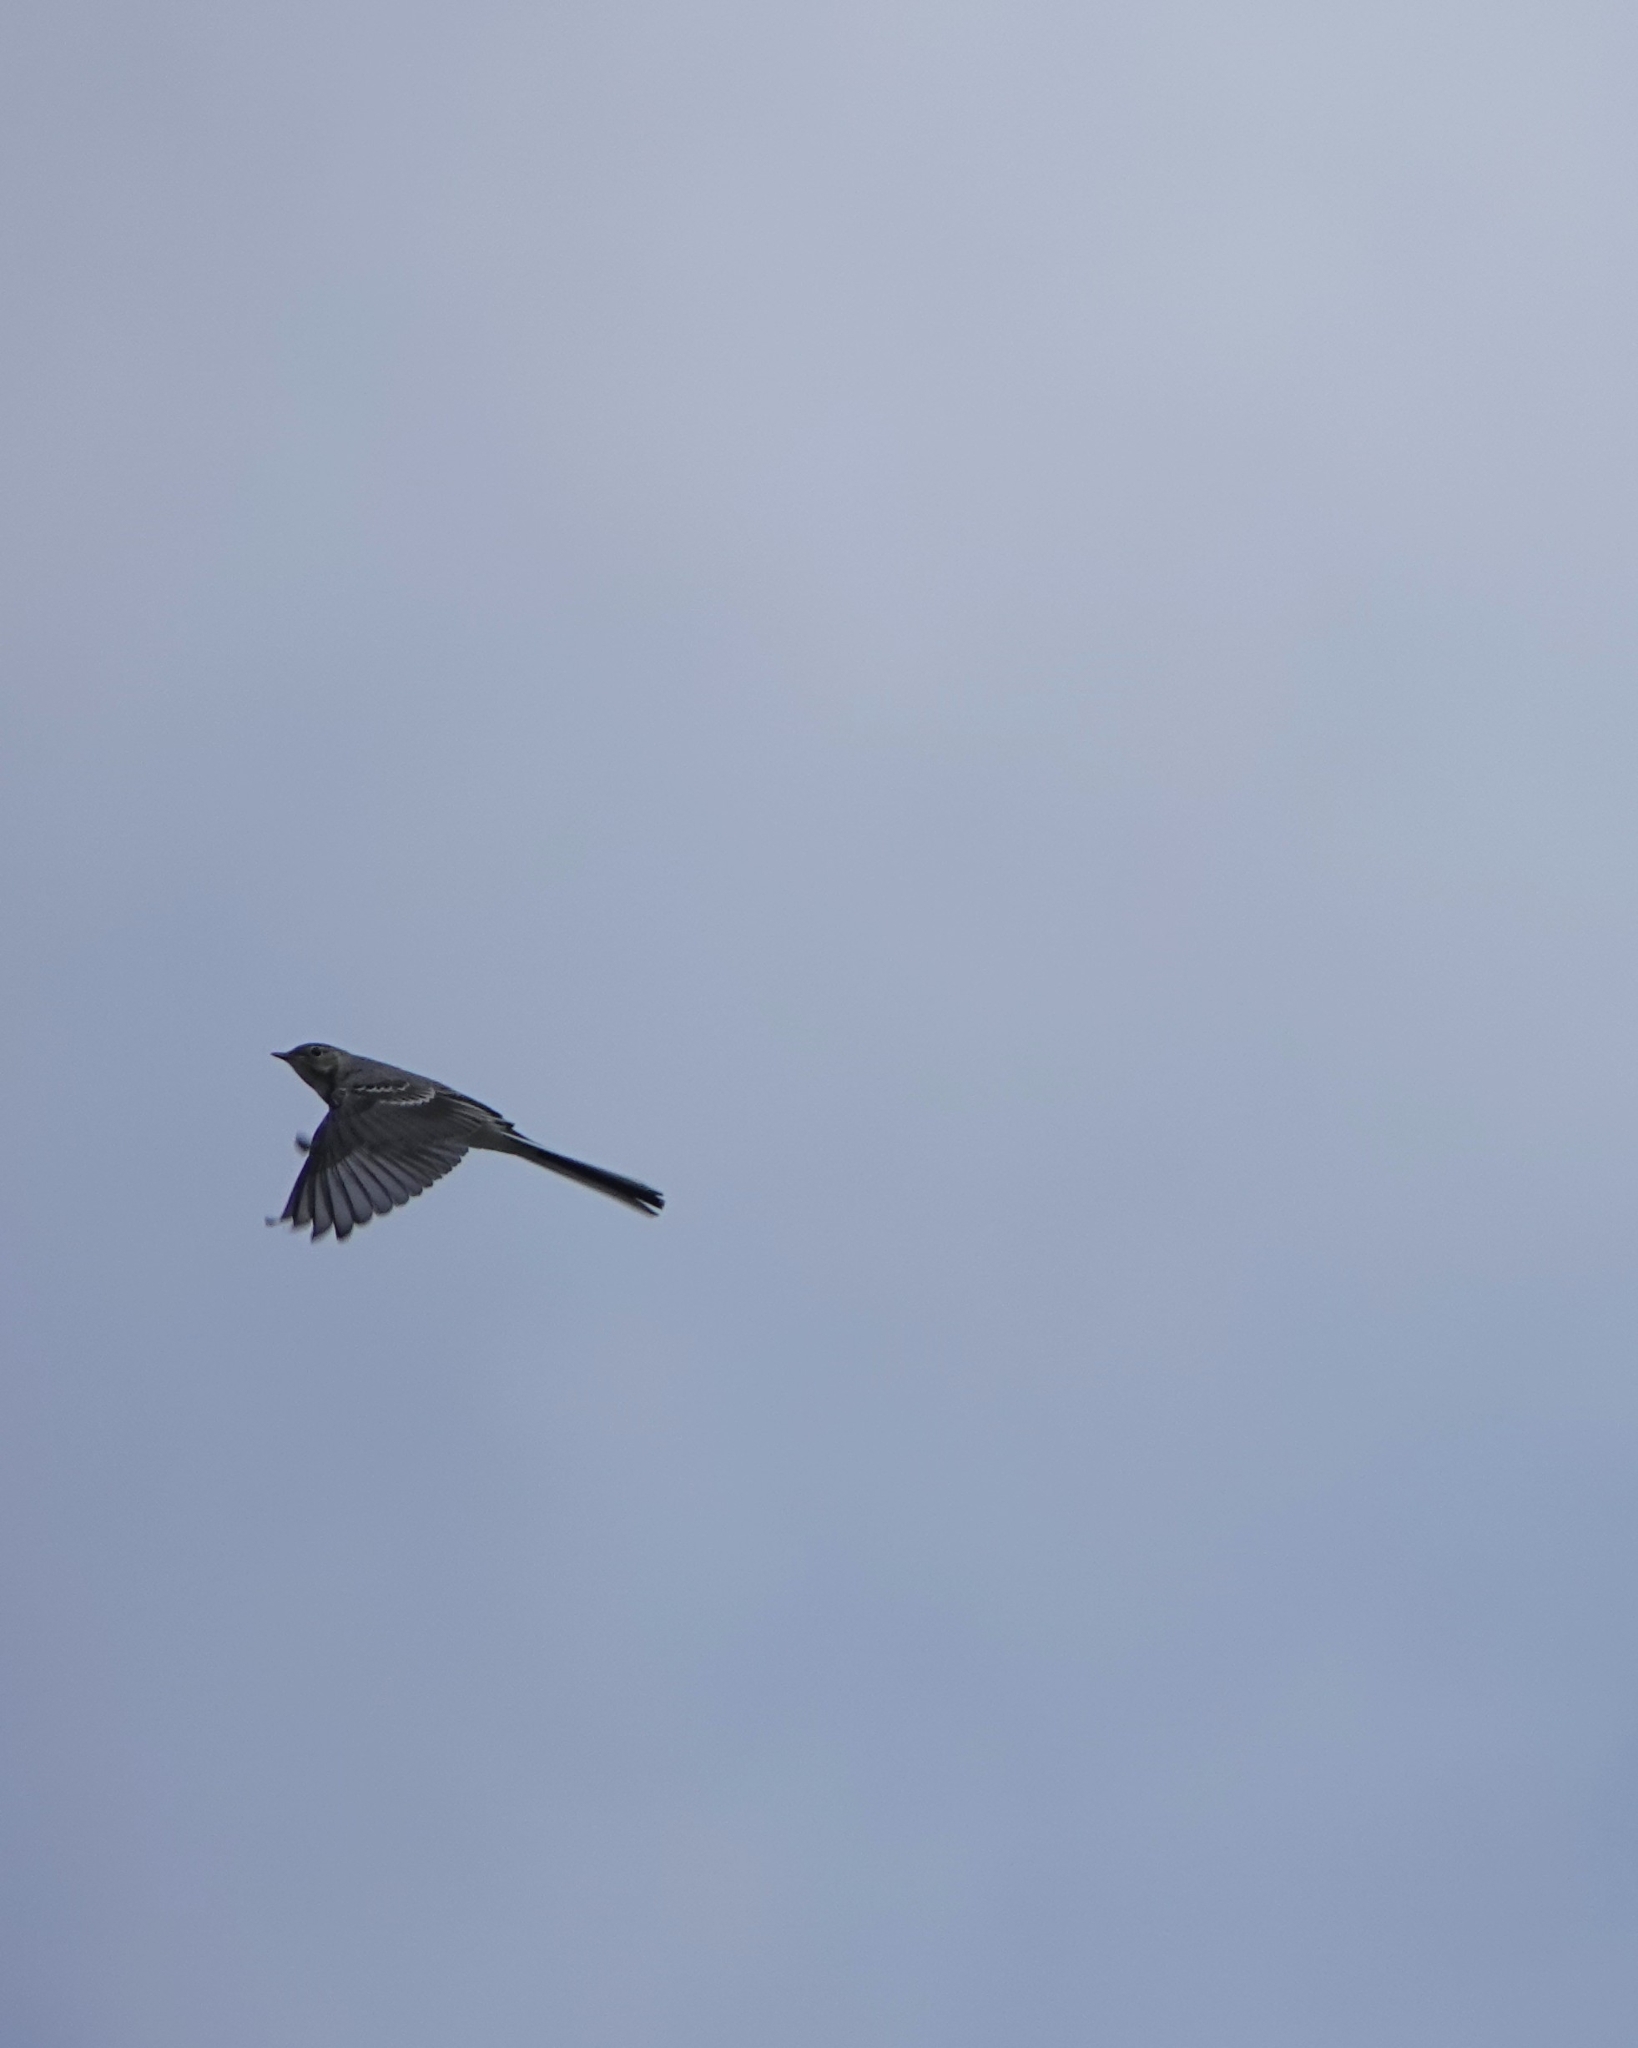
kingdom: Animalia
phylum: Chordata
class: Aves
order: Passeriformes
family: Motacillidae
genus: Motacilla
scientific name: Motacilla alba
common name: White wagtail
